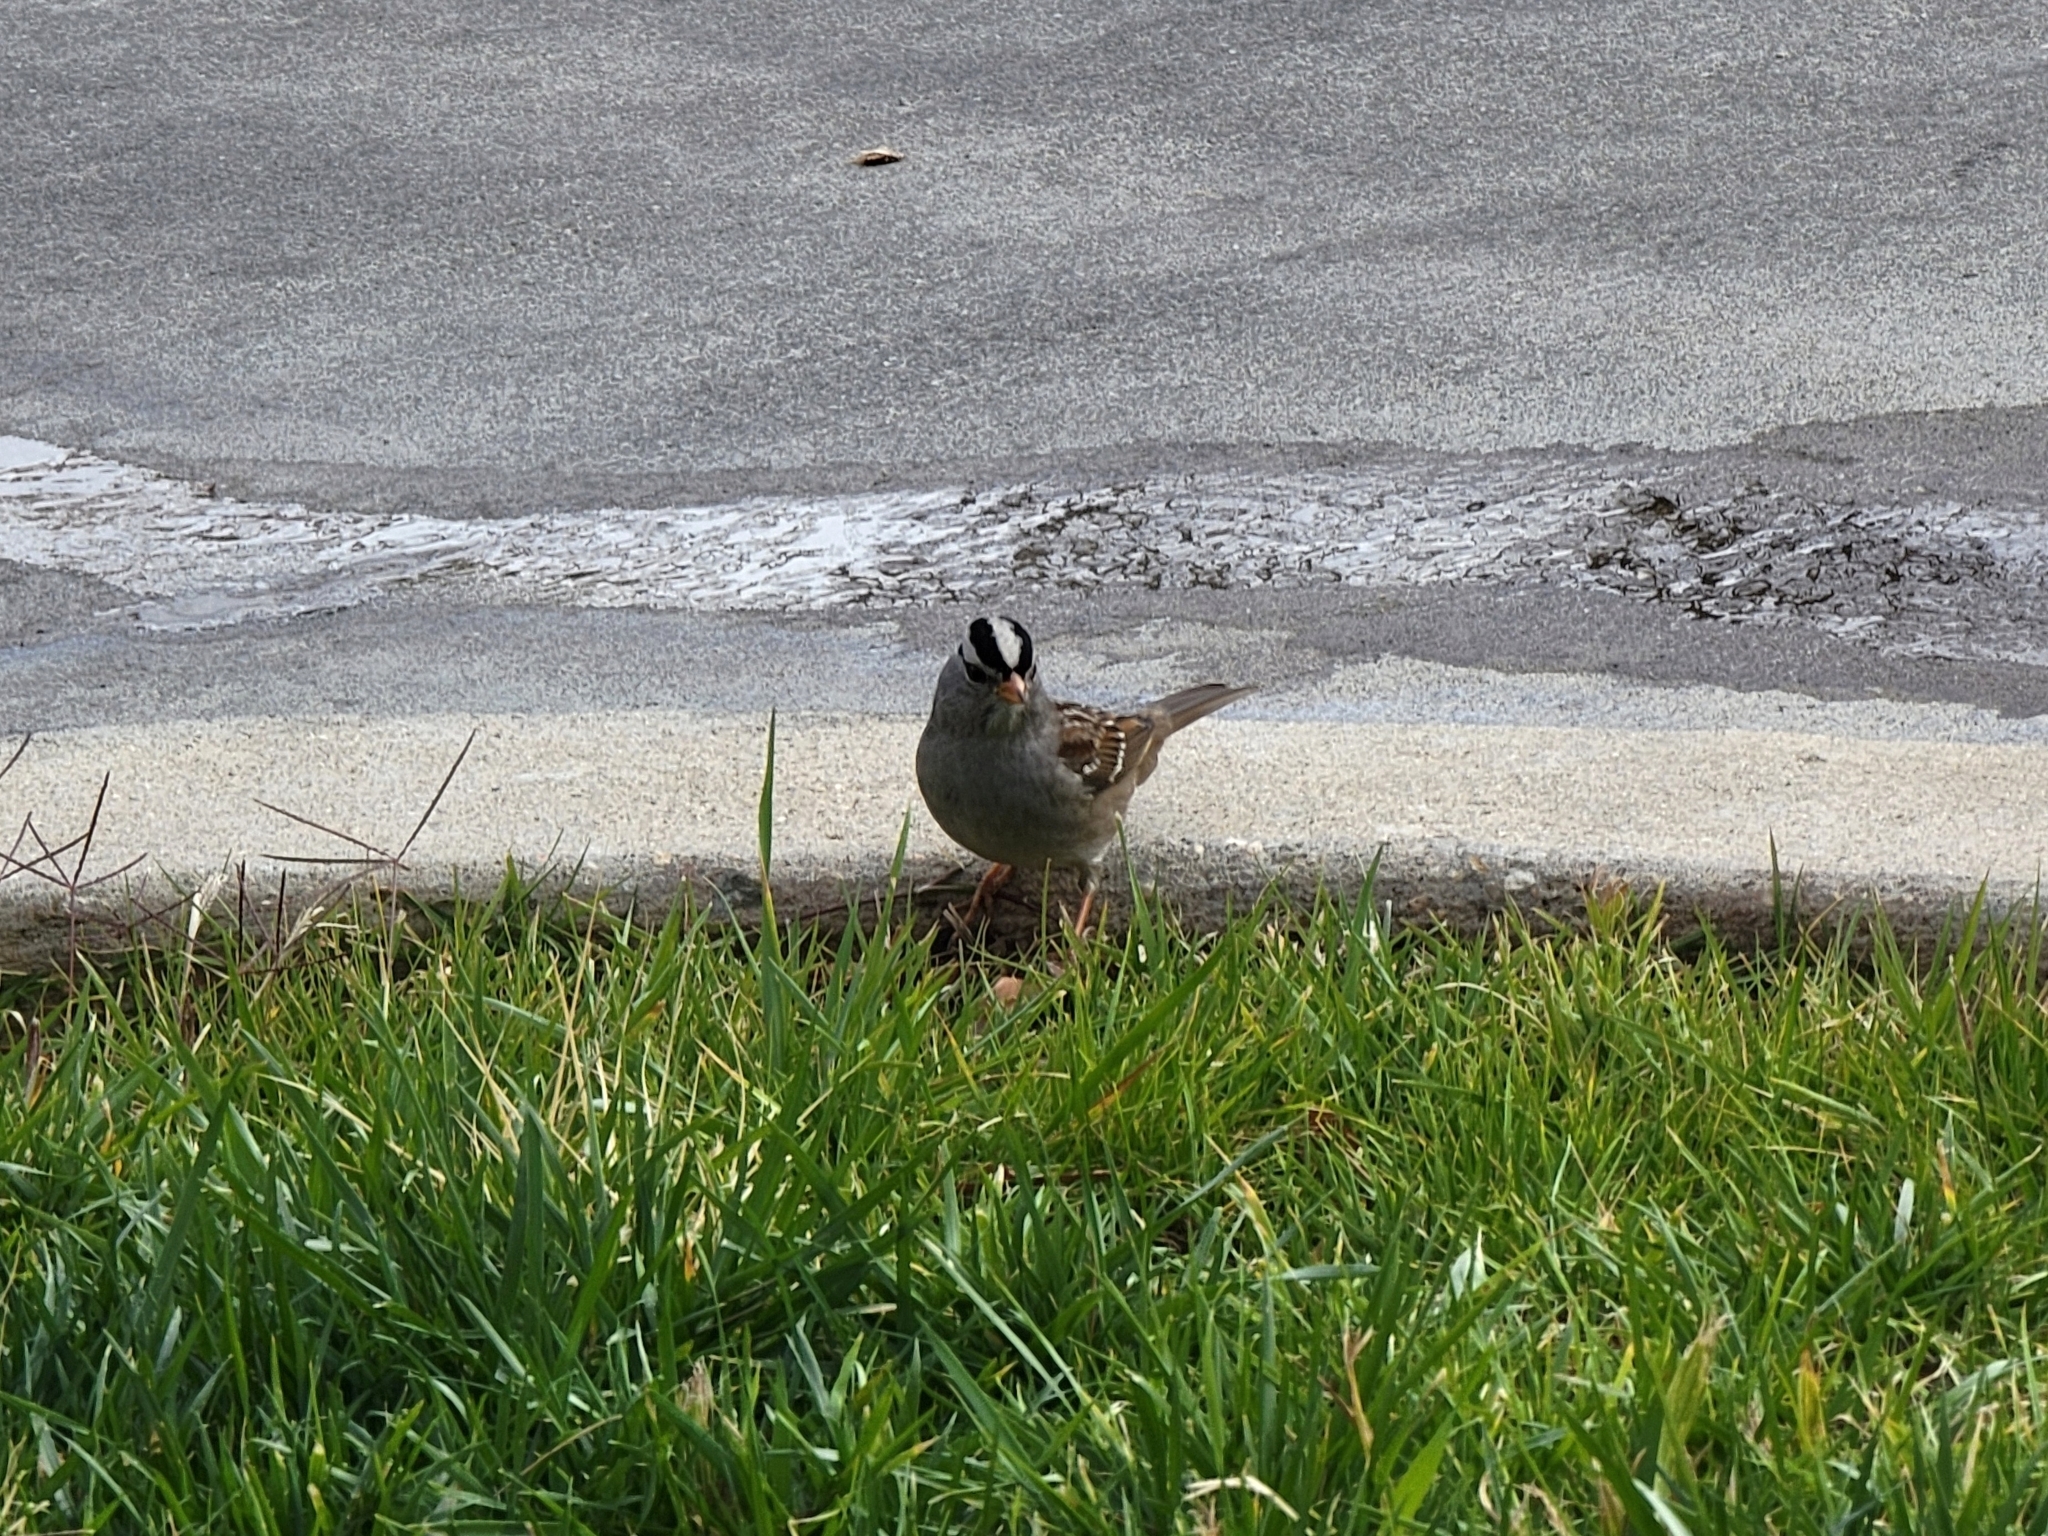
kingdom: Animalia
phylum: Chordata
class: Aves
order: Passeriformes
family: Passerellidae
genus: Zonotrichia
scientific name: Zonotrichia leucophrys
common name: White-crowned sparrow
